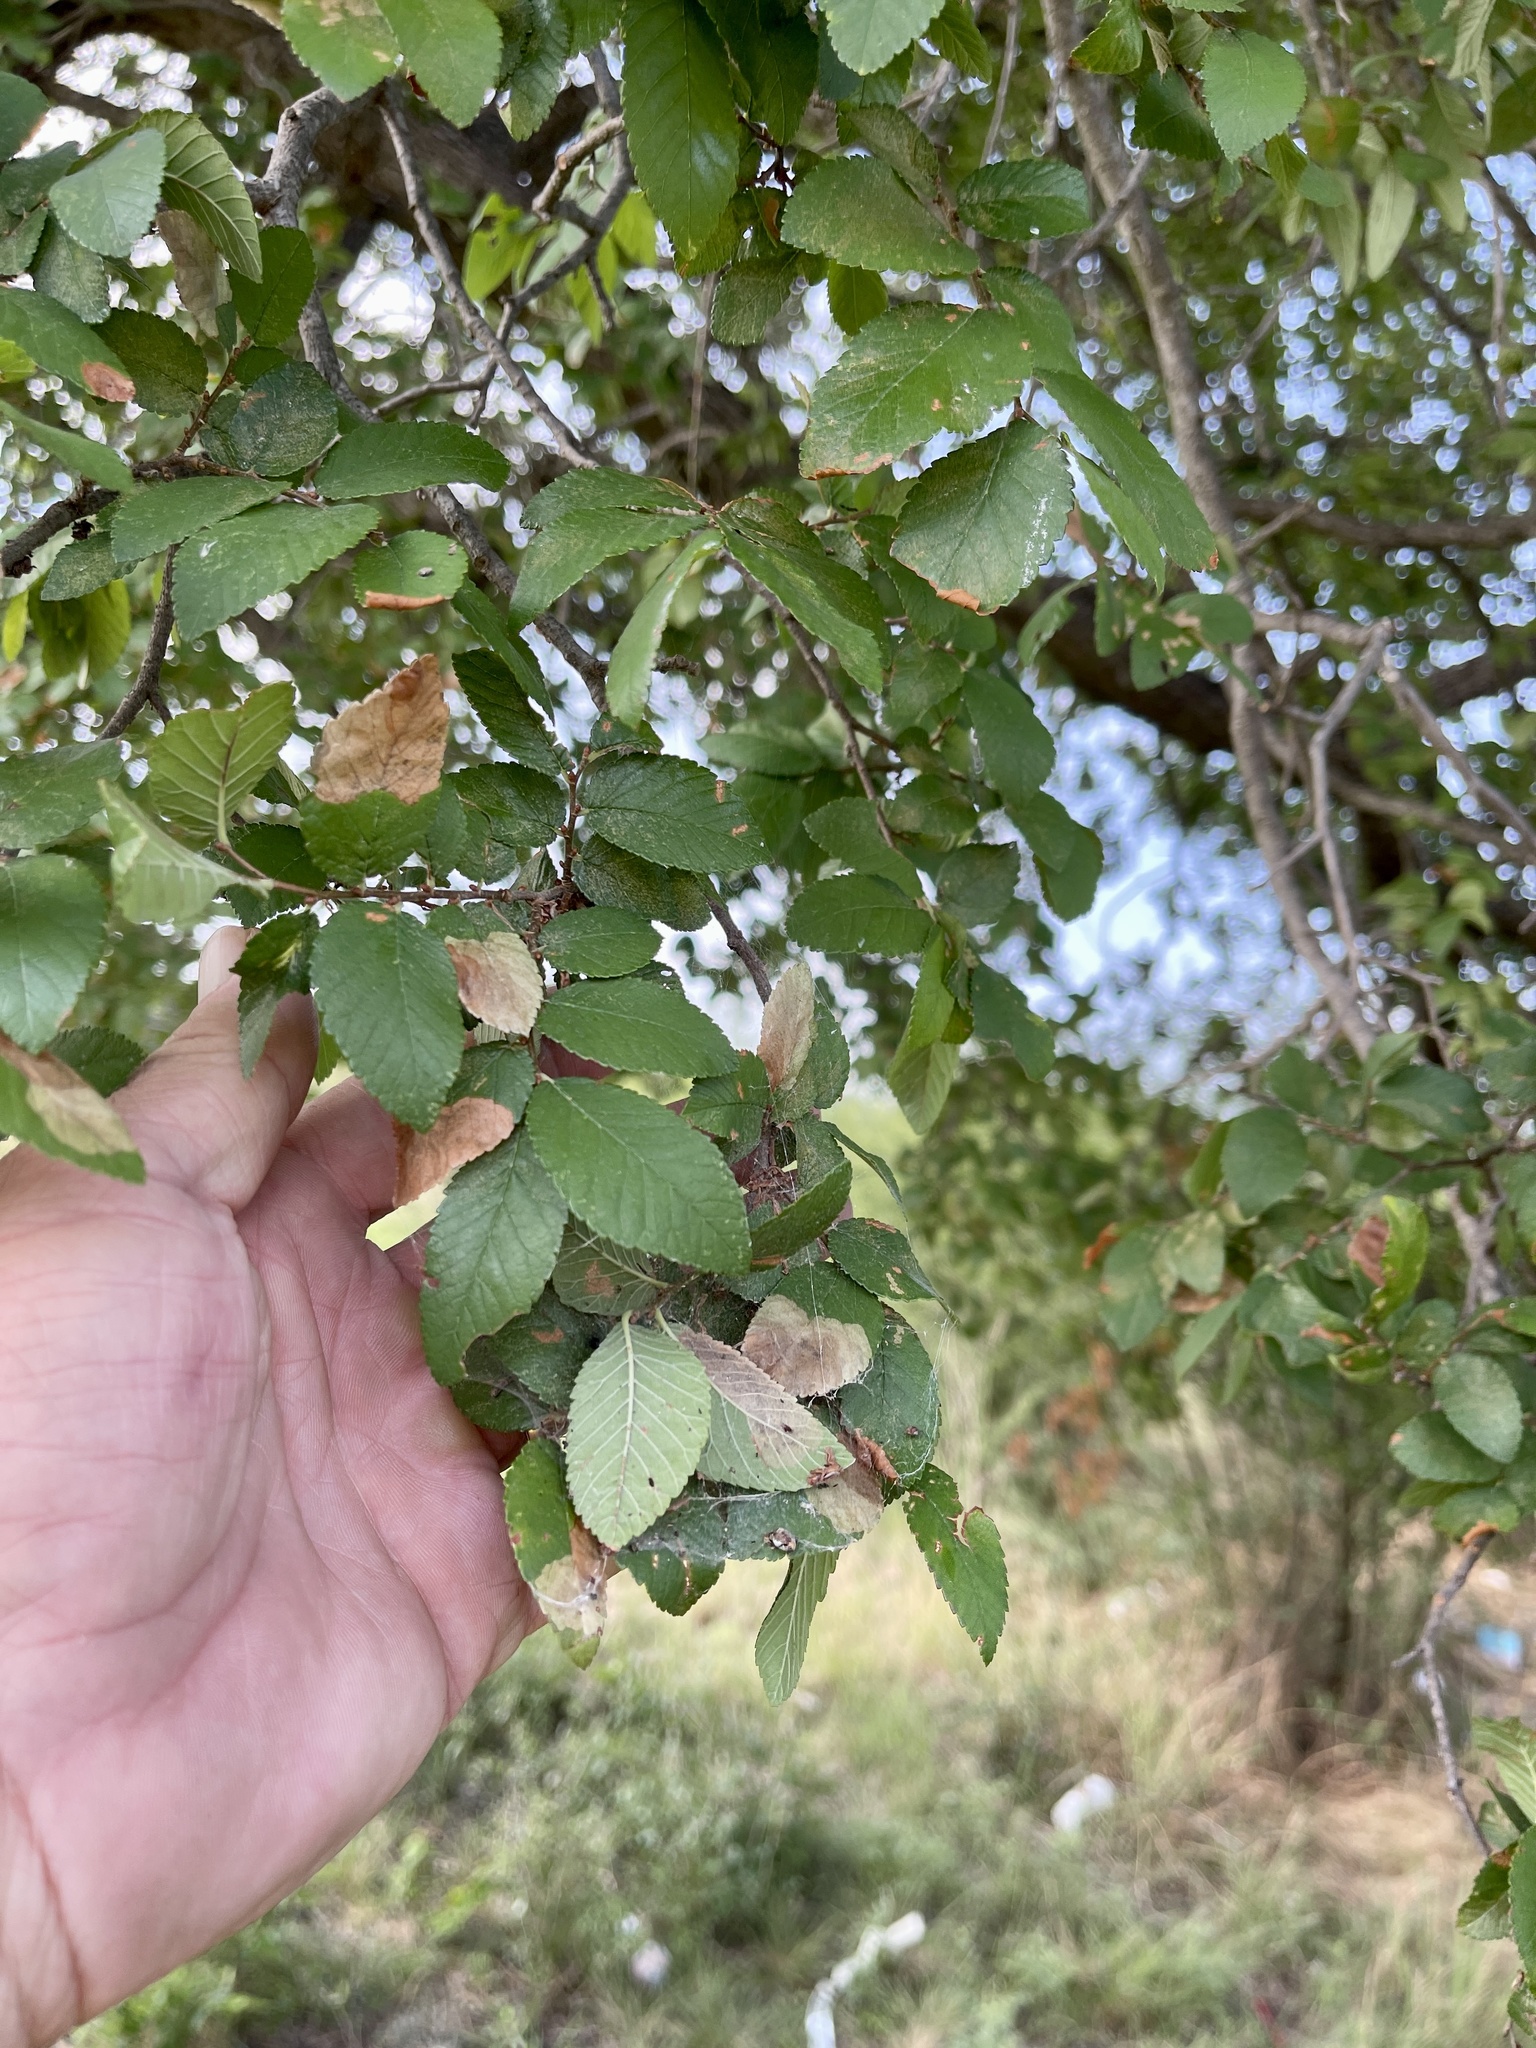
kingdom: Plantae
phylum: Tracheophyta
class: Magnoliopsida
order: Rosales
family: Ulmaceae
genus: Ulmus
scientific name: Ulmus crassifolia
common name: Basket elm
